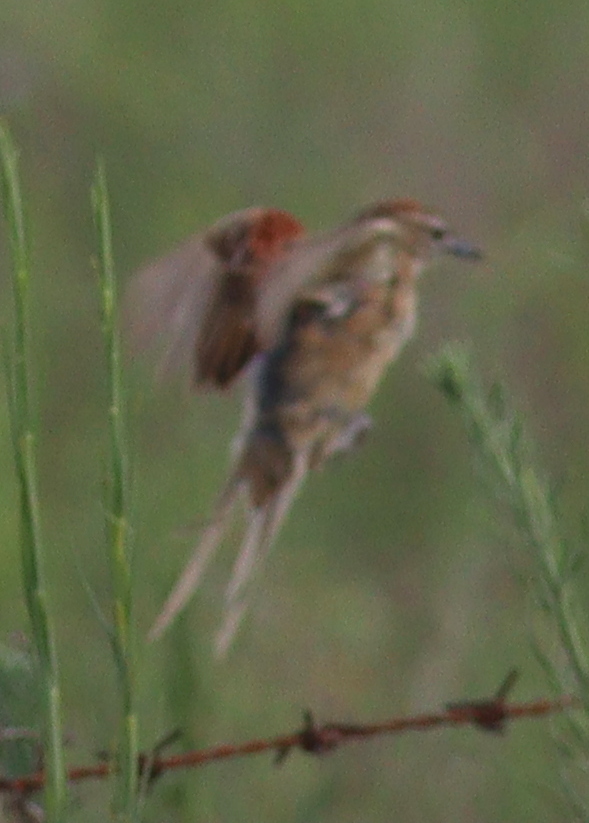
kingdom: Animalia
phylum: Chordata
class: Aves
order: Passeriformes
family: Furnariidae
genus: Schoeniophylax
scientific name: Schoeniophylax phryganophilus
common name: Chotoy spinetail
